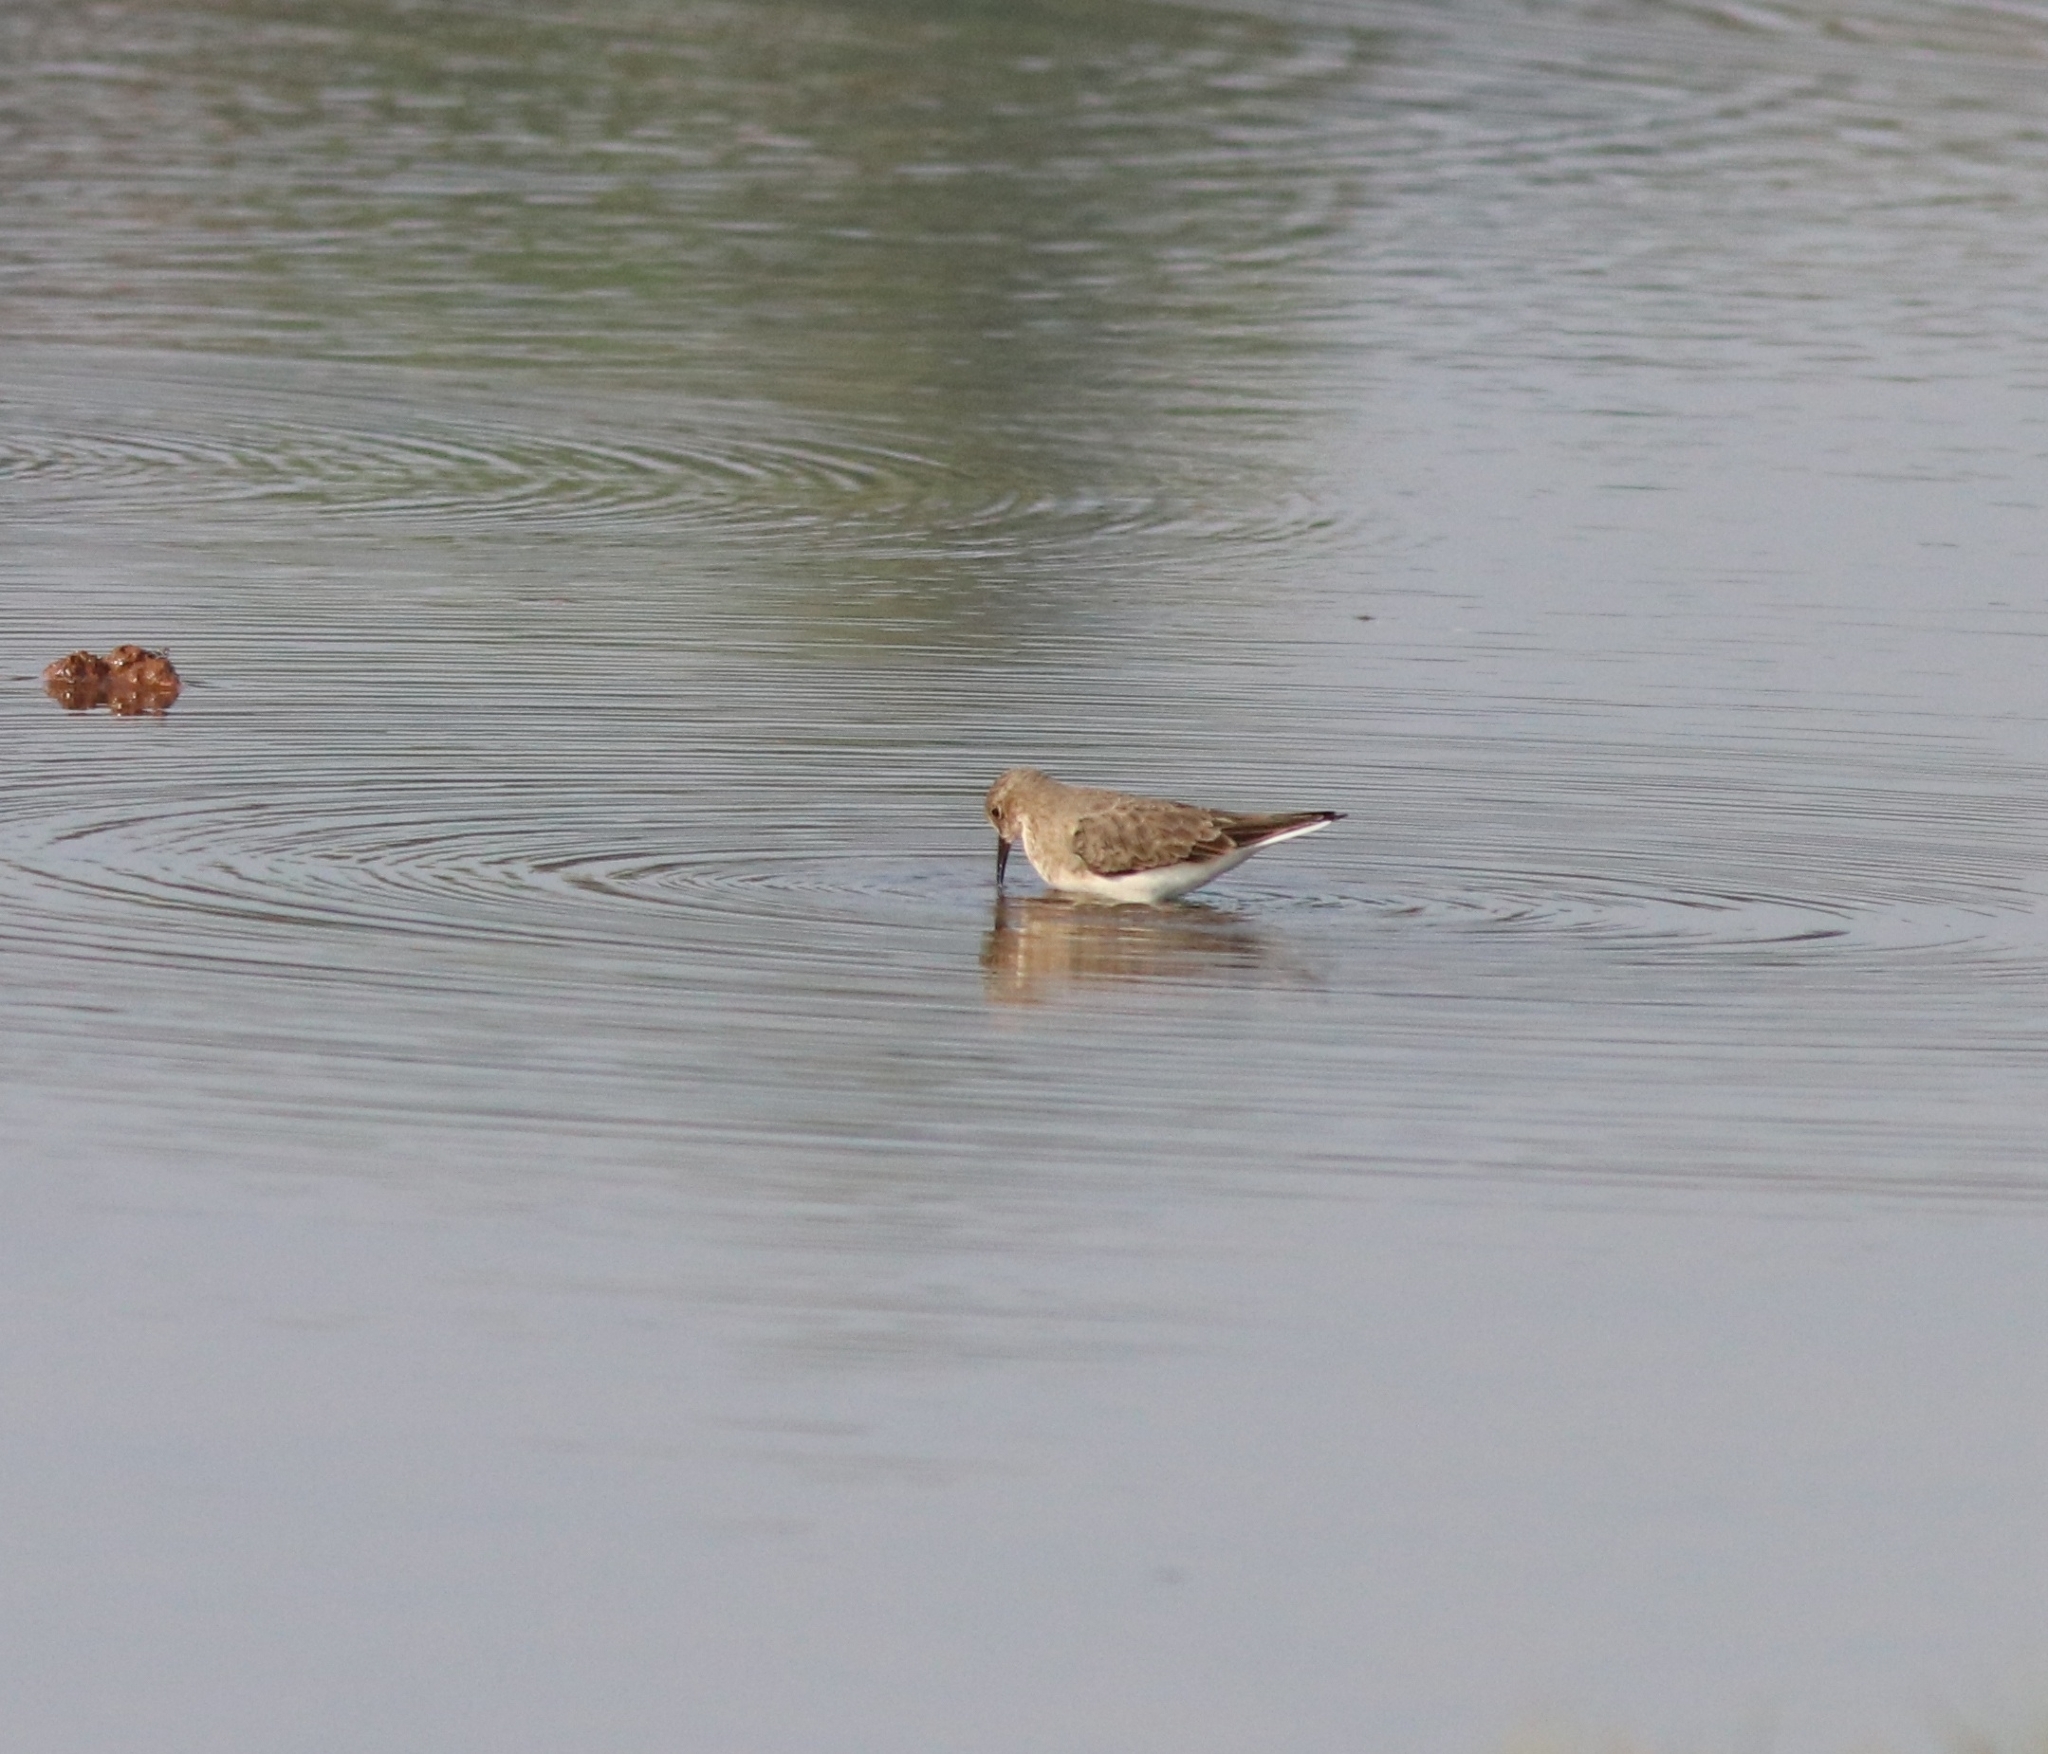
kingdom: Animalia
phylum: Chordata
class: Aves
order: Charadriiformes
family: Scolopacidae
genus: Calidris
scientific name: Calidris temminckii
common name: Temminck's stint
